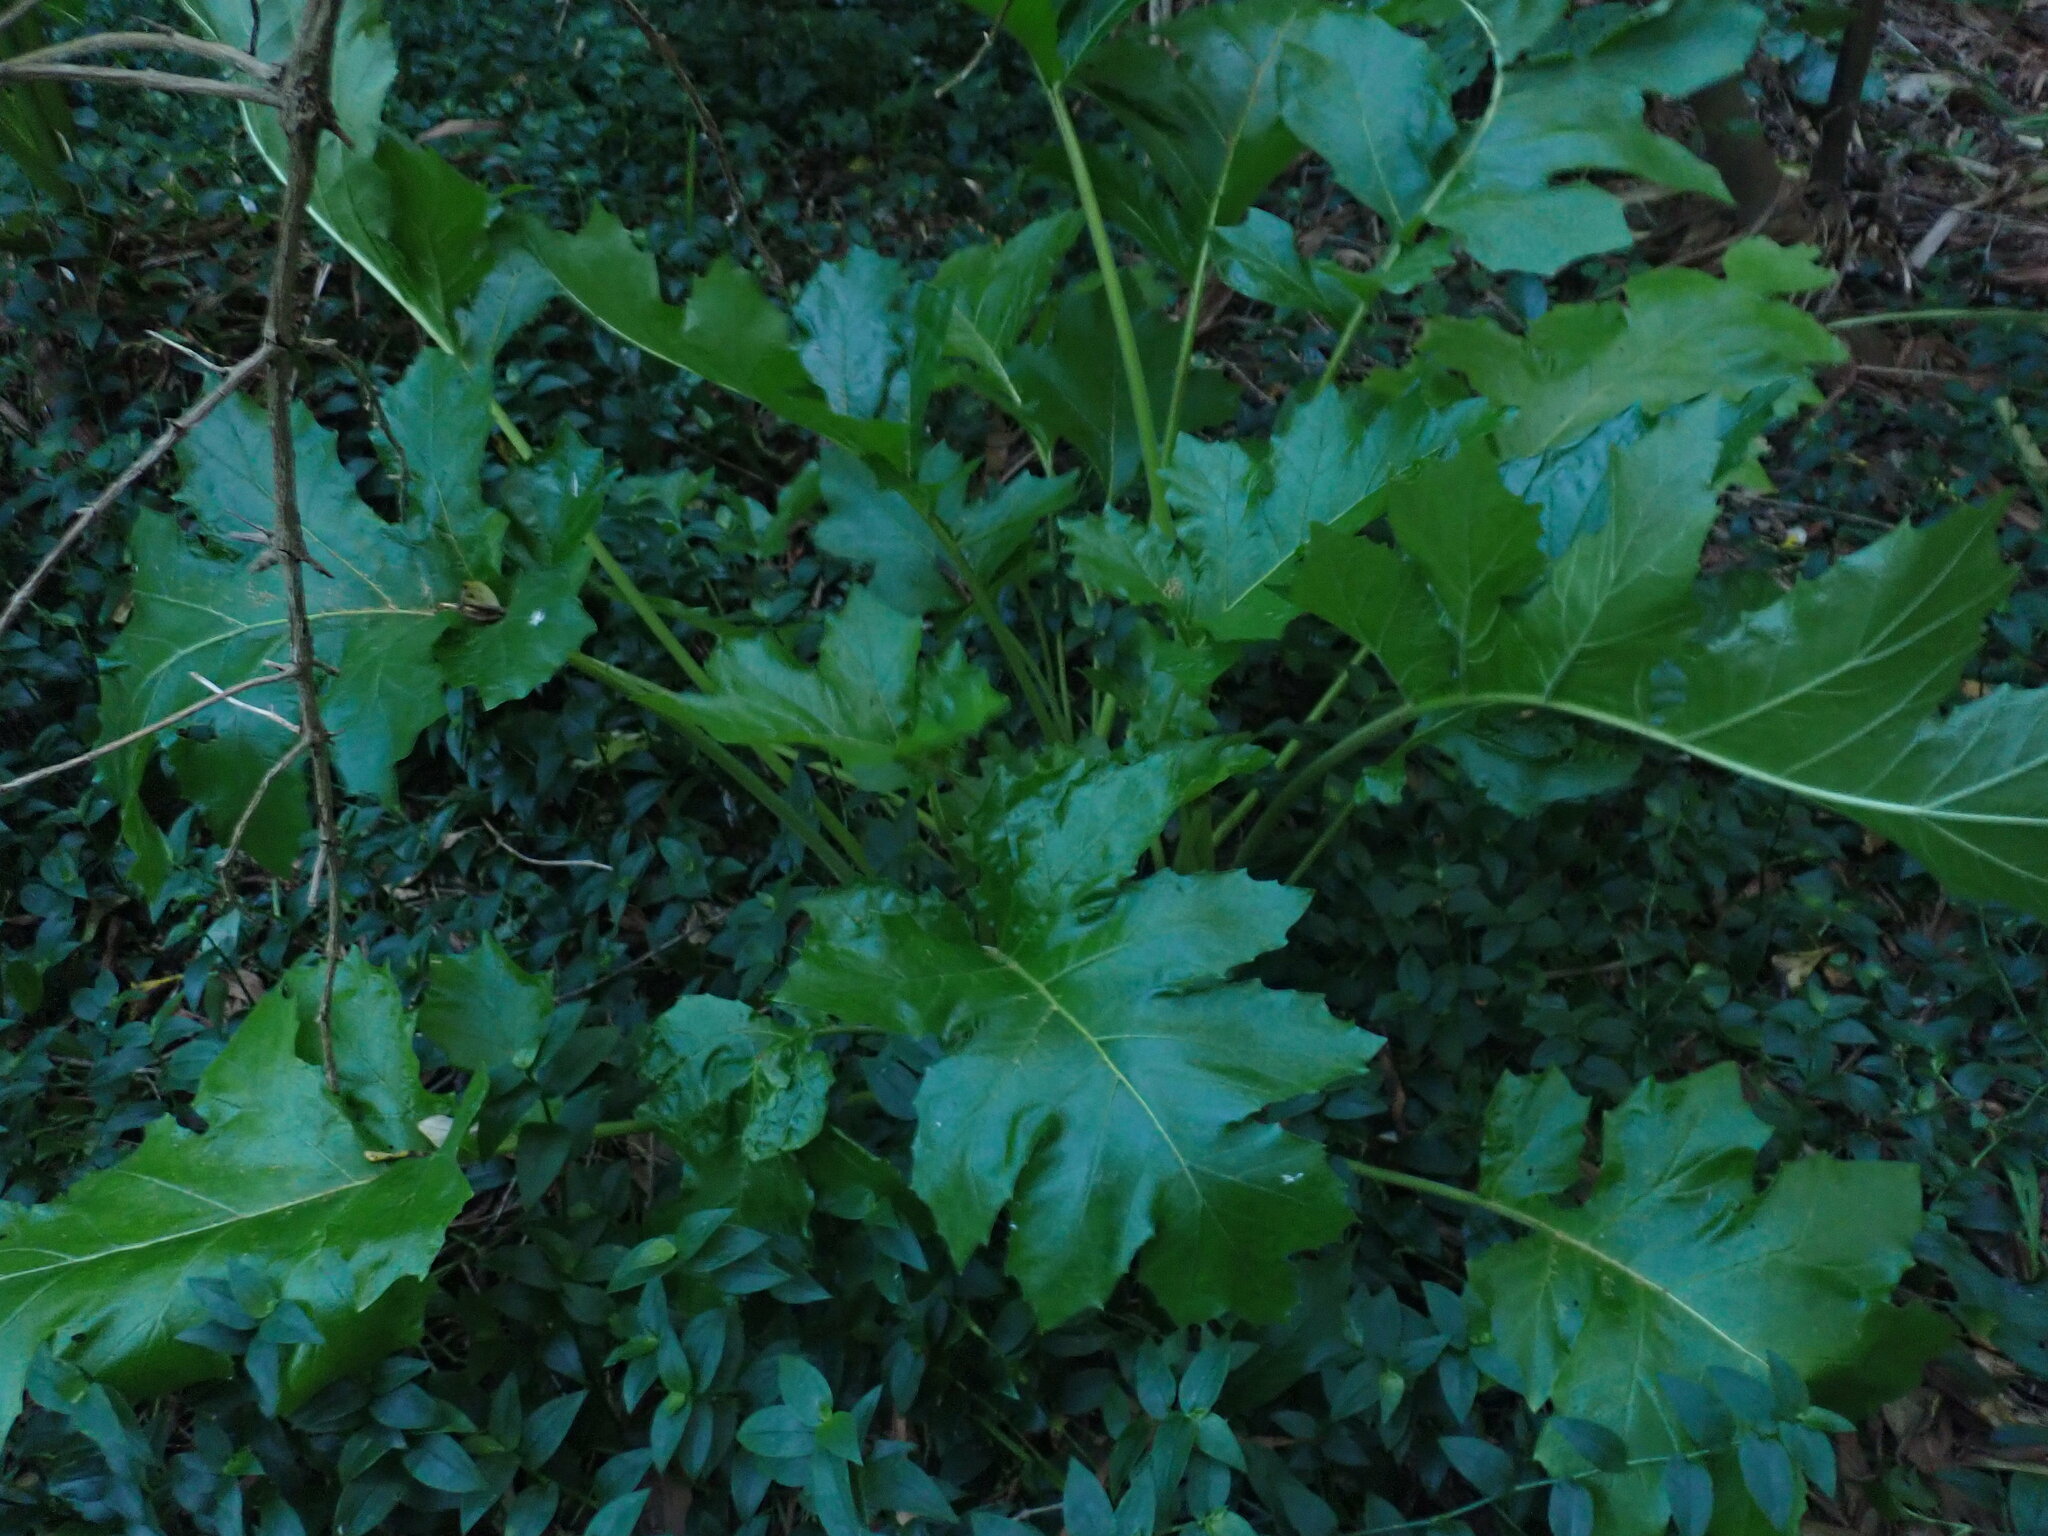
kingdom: Plantae
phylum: Tracheophyta
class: Magnoliopsida
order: Lamiales
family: Acanthaceae
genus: Acanthus
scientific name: Acanthus mollis
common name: Bear's-breech
